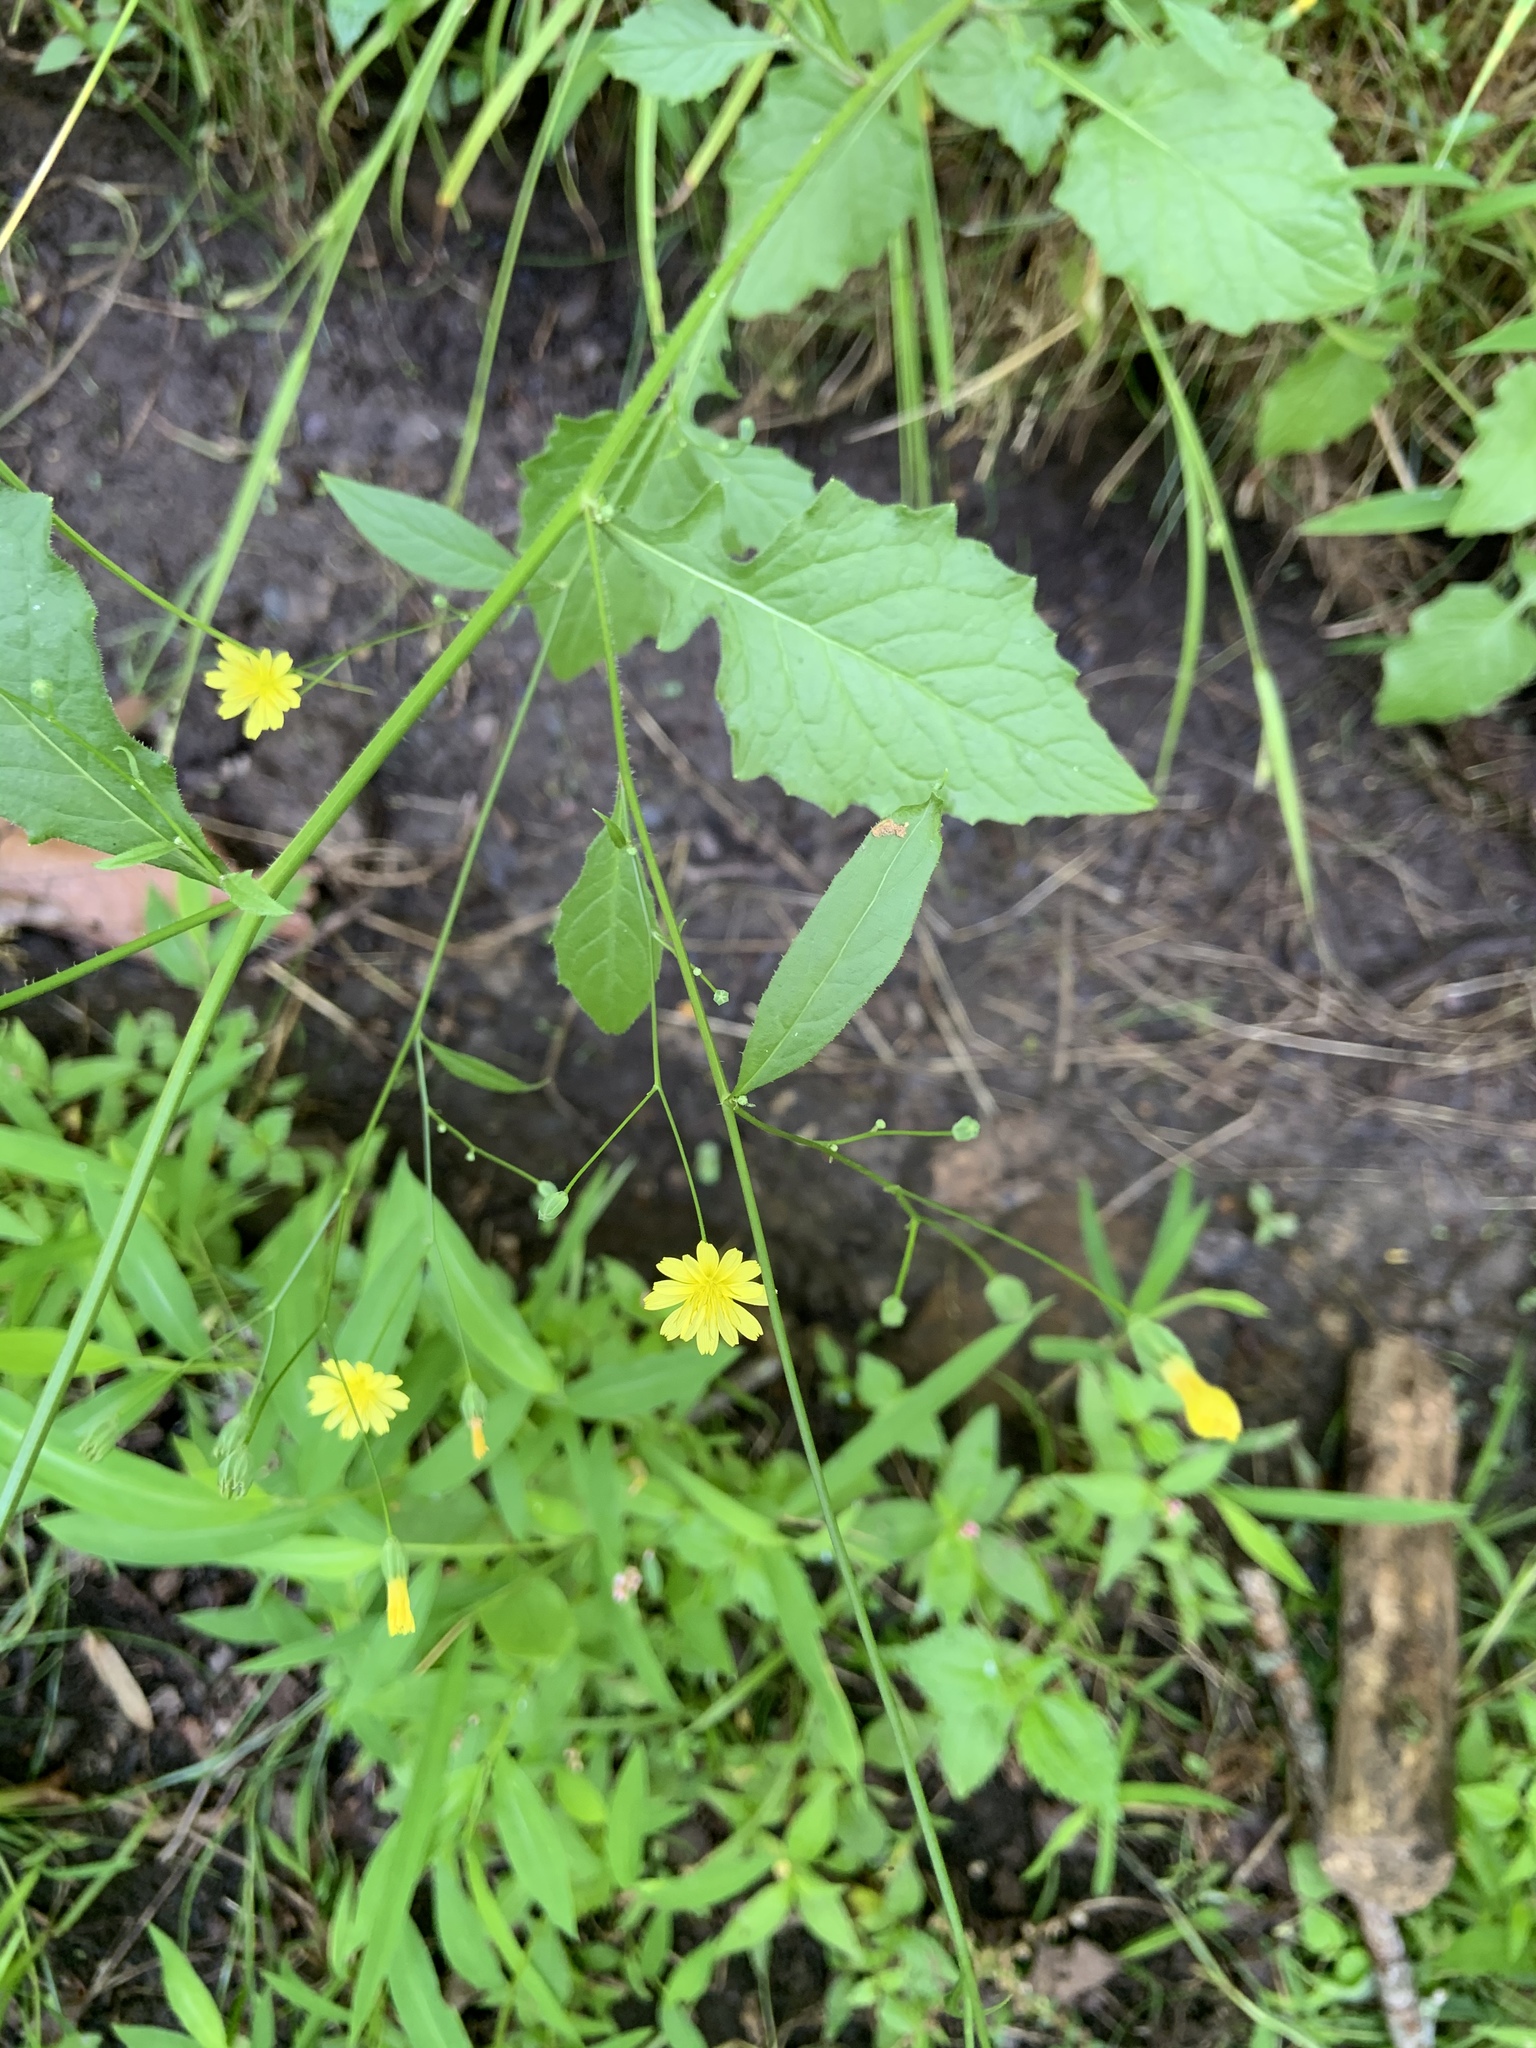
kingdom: Plantae
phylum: Tracheophyta
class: Magnoliopsida
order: Asterales
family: Asteraceae
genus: Lapsana
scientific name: Lapsana communis
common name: Nipplewort
